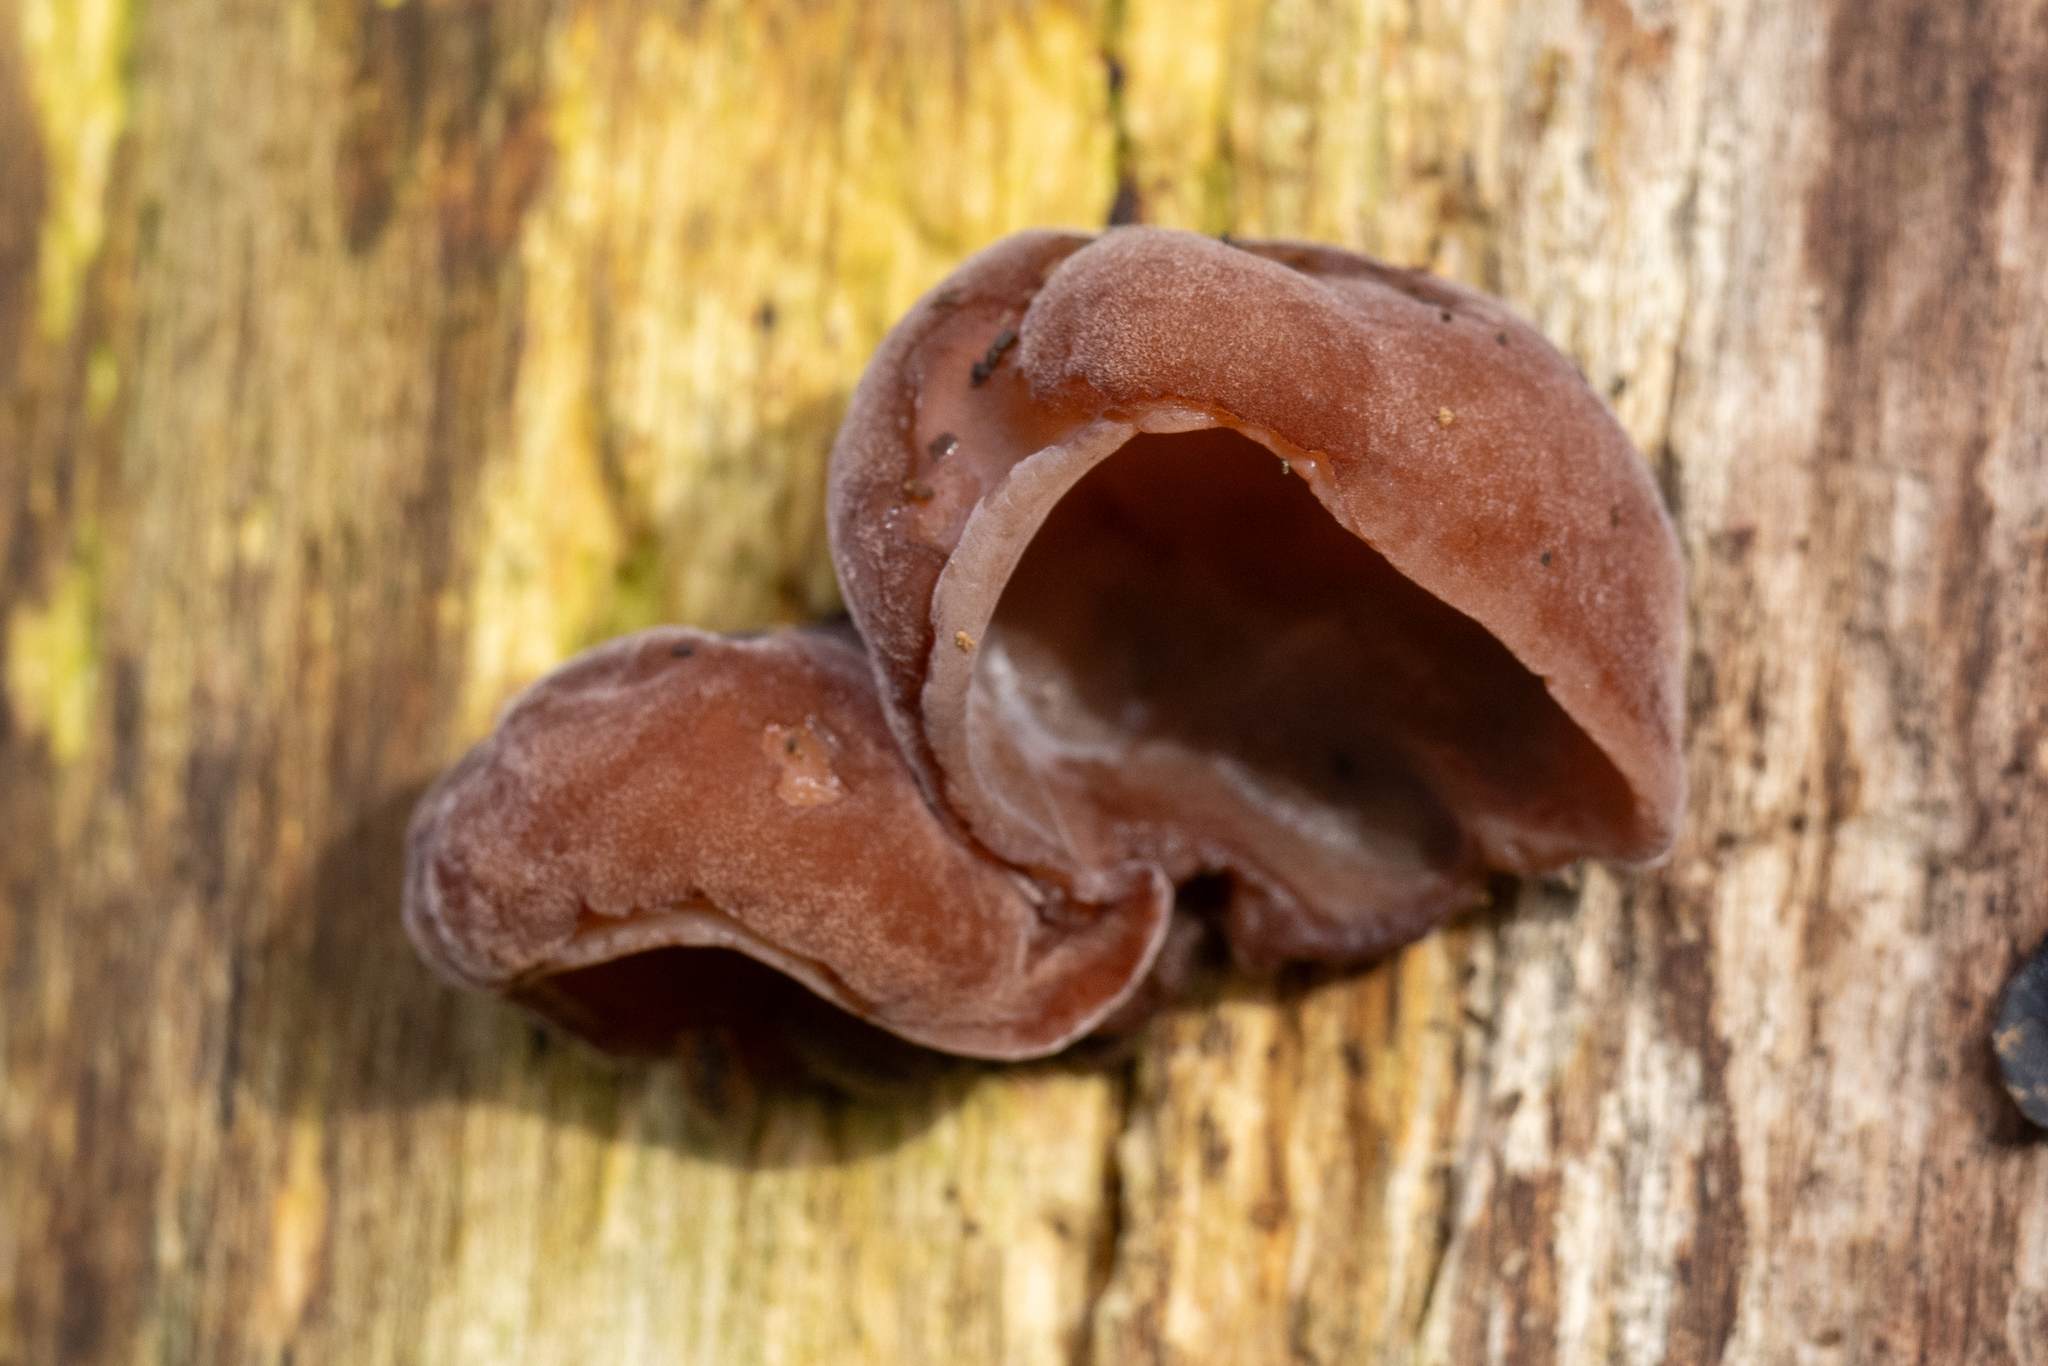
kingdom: Fungi
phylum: Basidiomycota
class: Agaricomycetes
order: Auriculariales
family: Auriculariaceae
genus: Auricularia
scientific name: Auricularia auricula-judae
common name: Jelly ear
